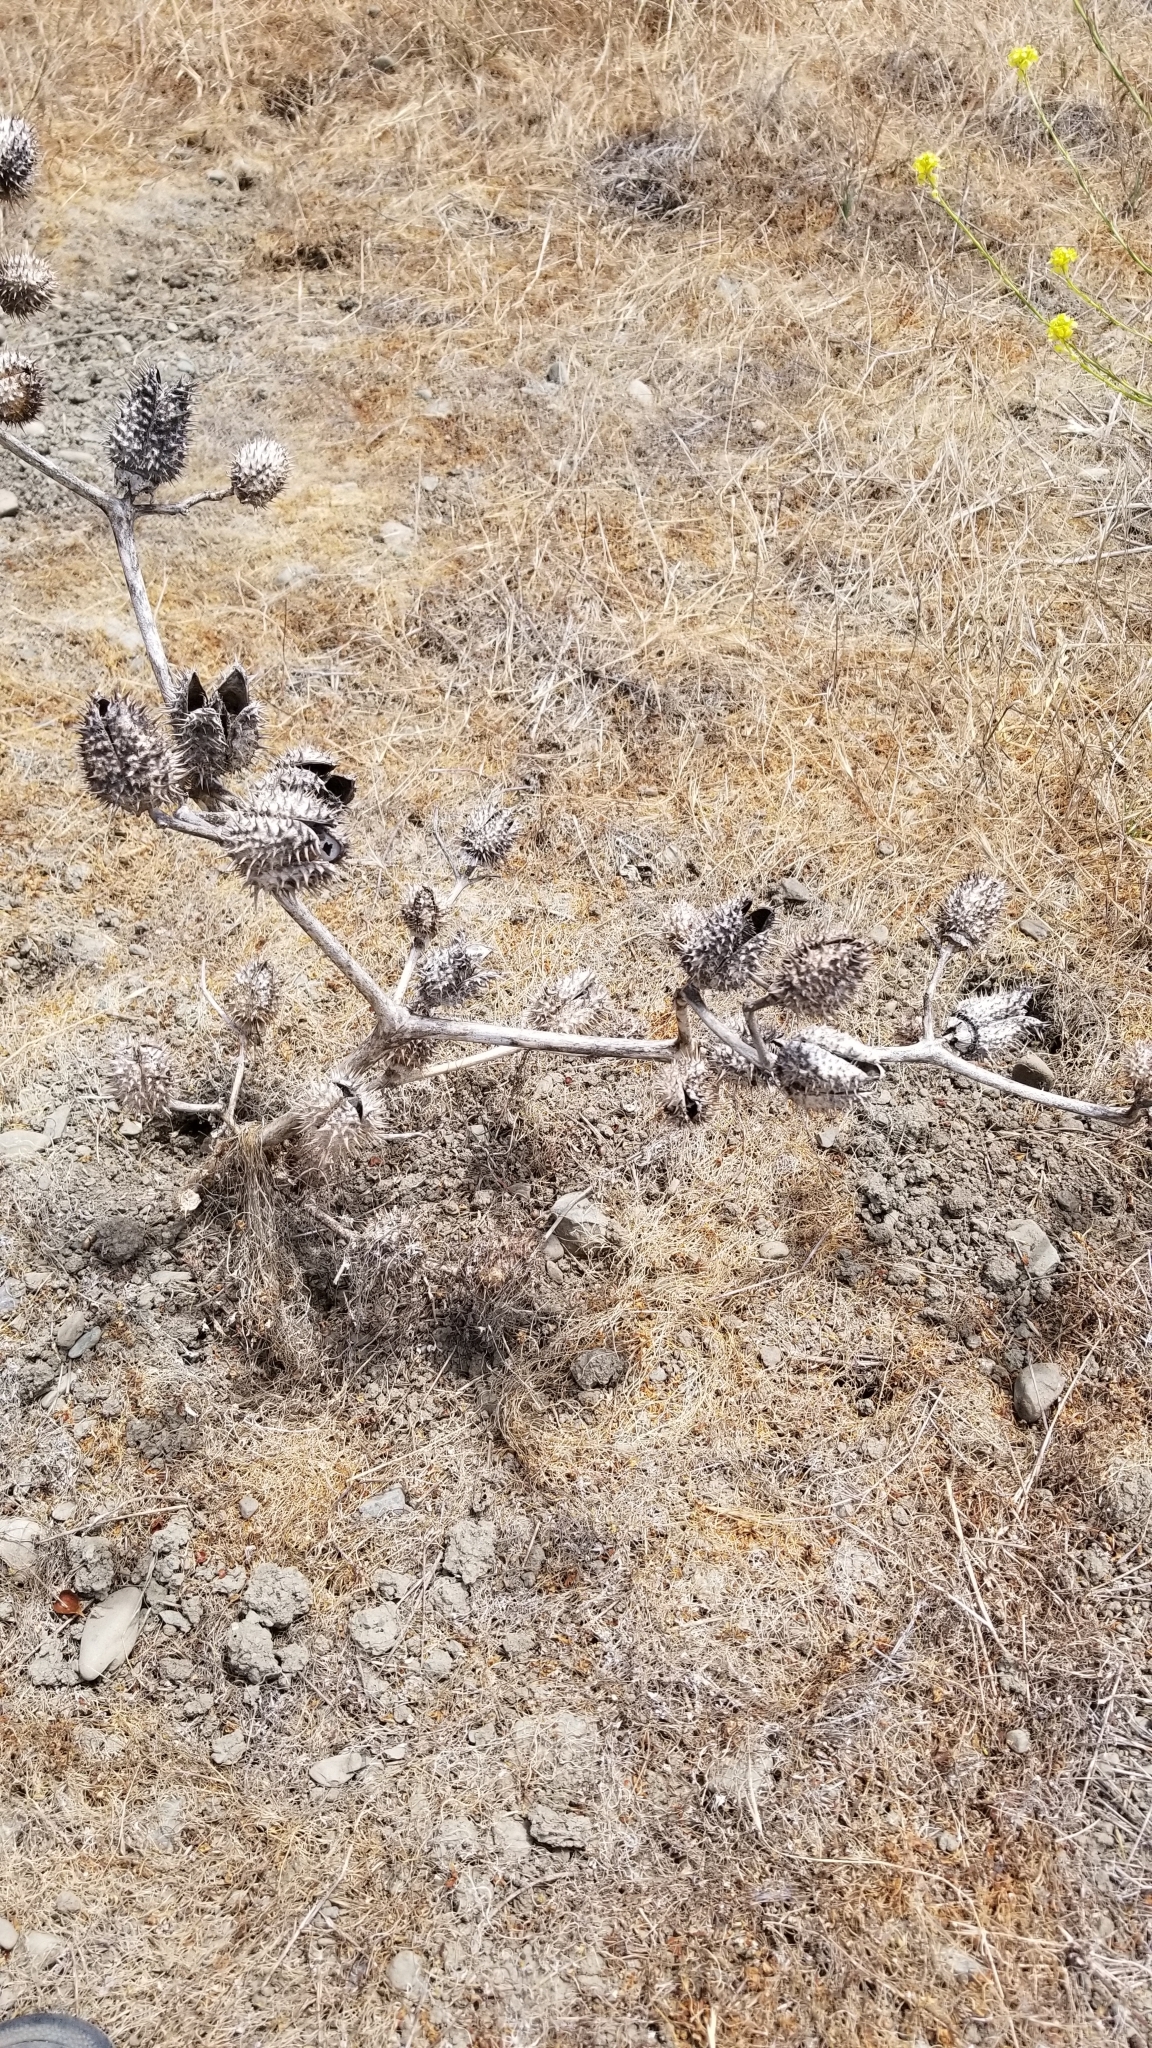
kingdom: Plantae
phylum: Tracheophyta
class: Magnoliopsida
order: Solanales
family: Solanaceae
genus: Datura
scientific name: Datura stramonium
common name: Thorn-apple
